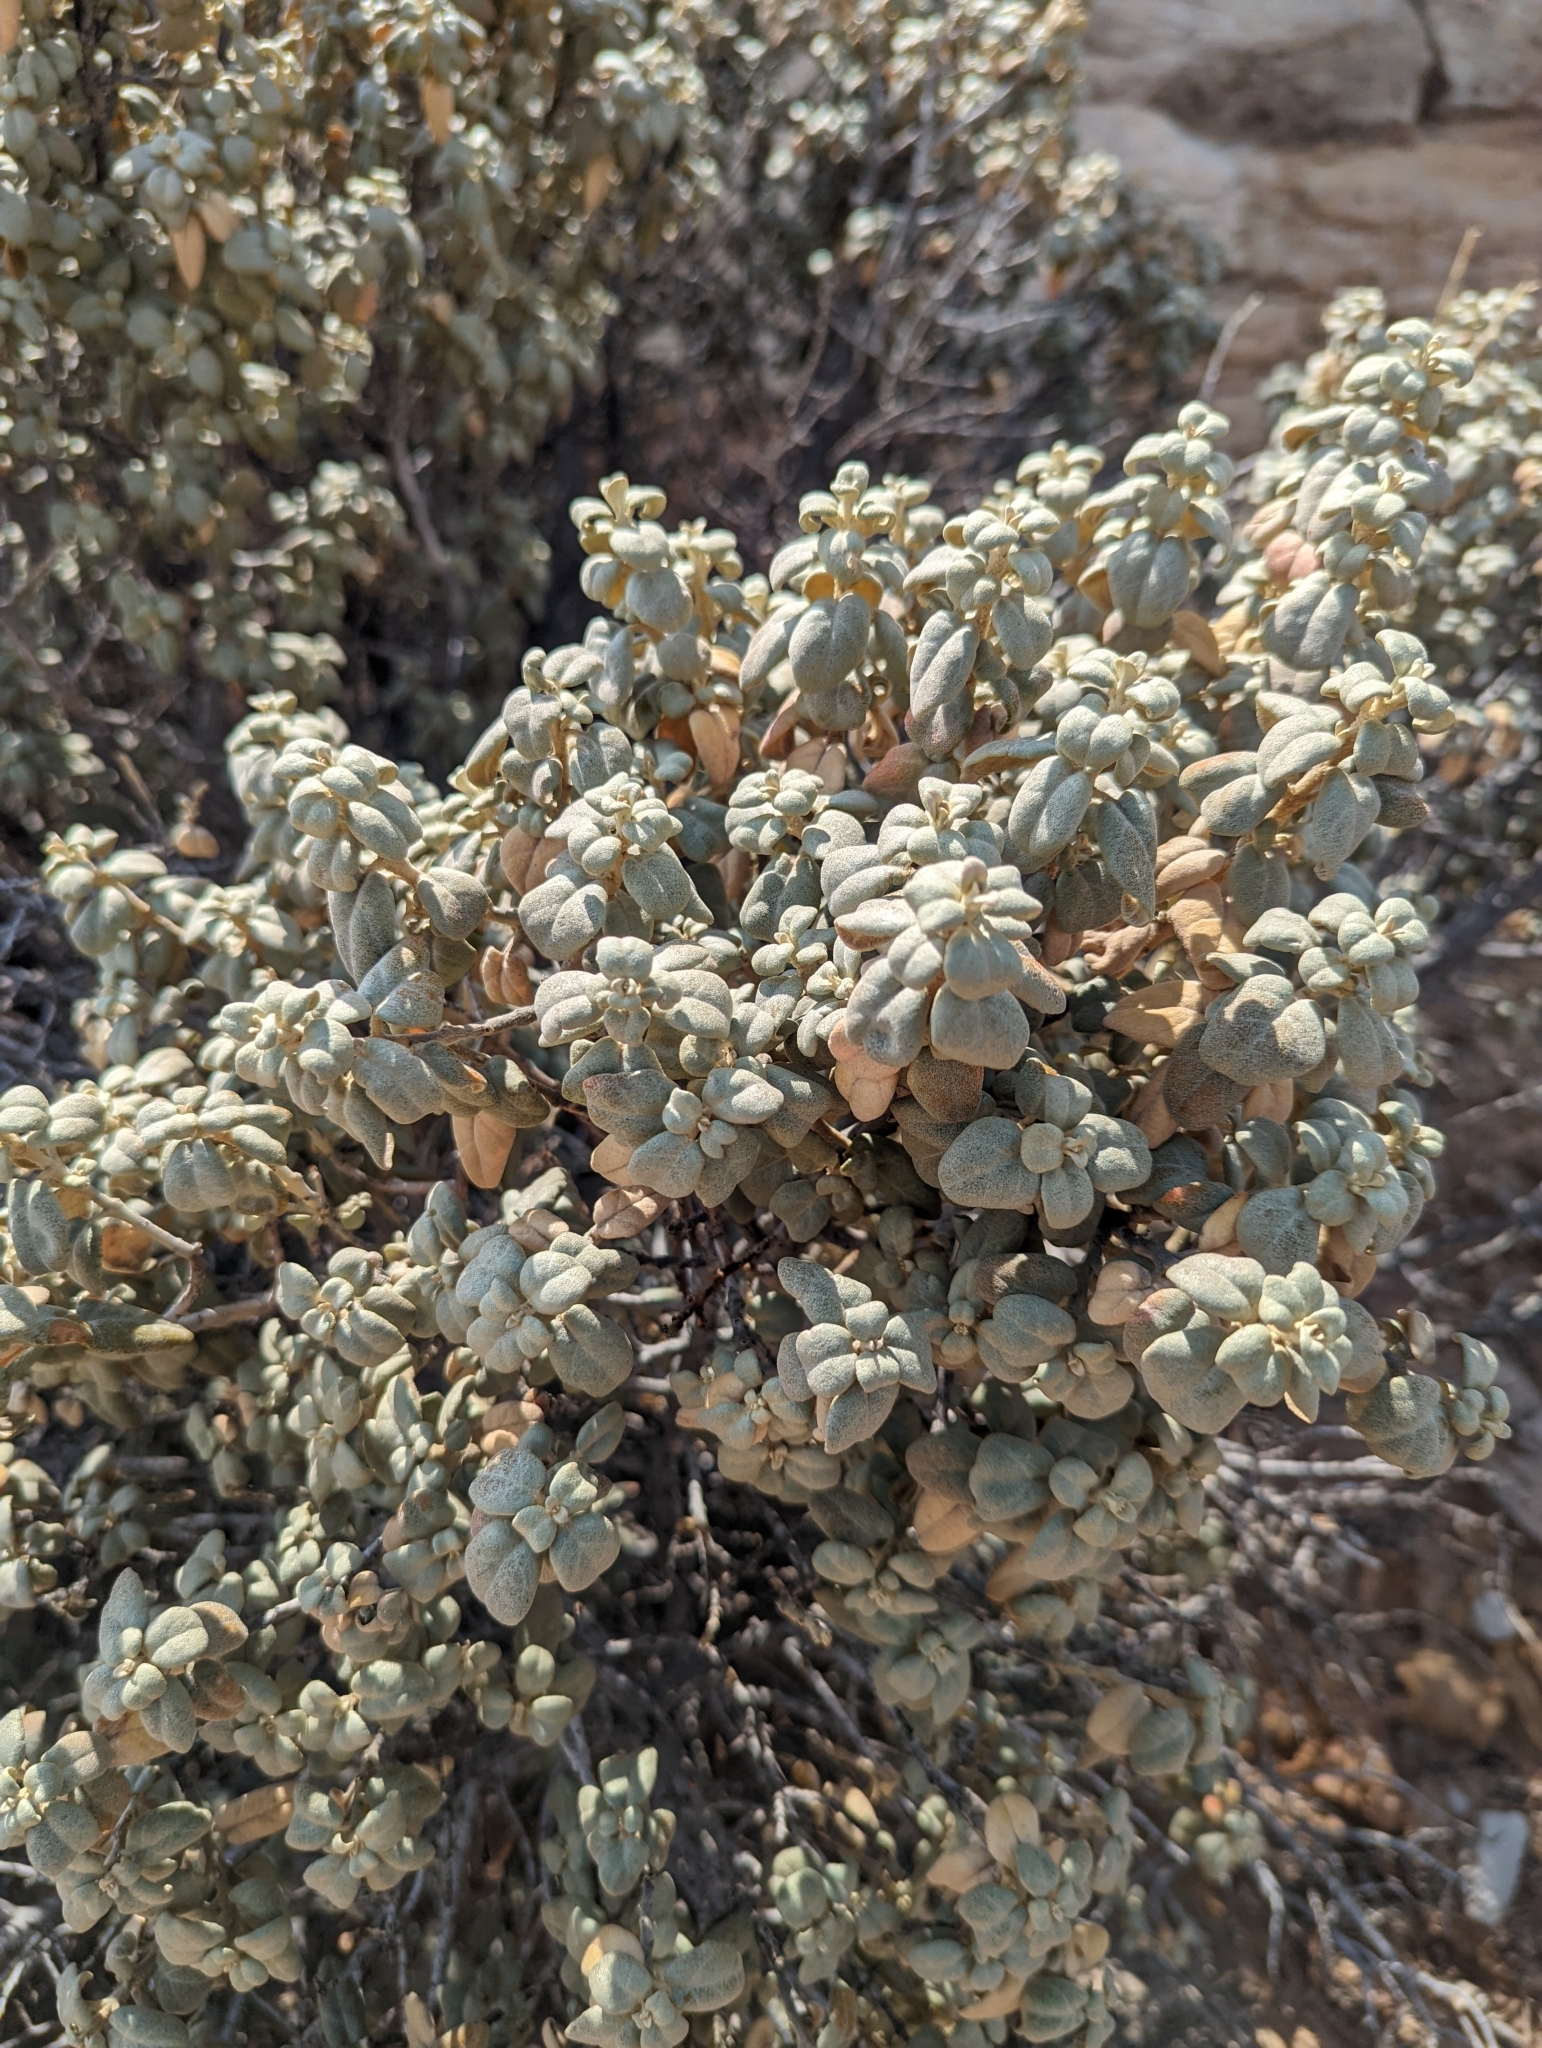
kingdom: Plantae
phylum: Tracheophyta
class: Magnoliopsida
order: Rosales
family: Elaeagnaceae
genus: Shepherdia
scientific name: Shepherdia rotundifolia
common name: Silverscale
